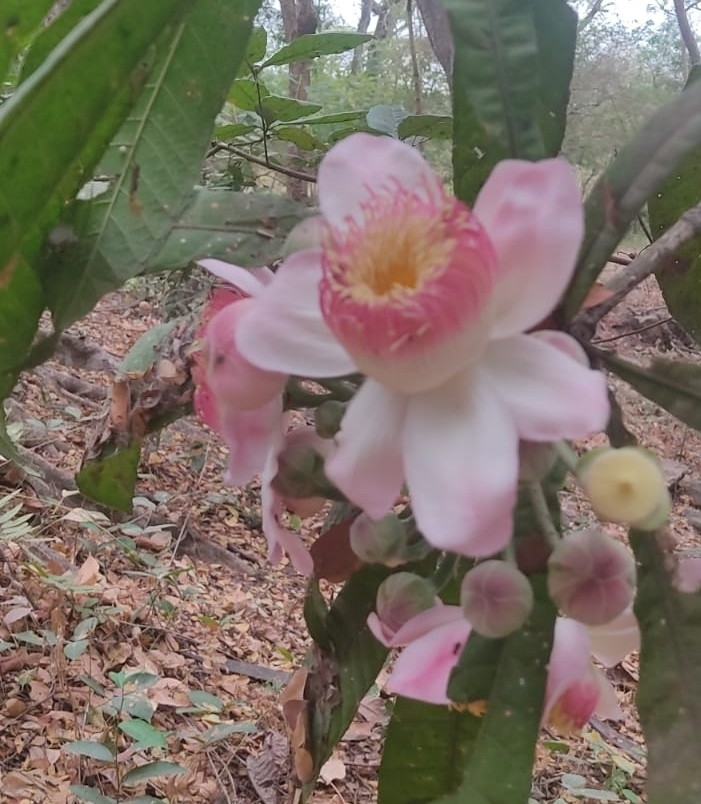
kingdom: Plantae
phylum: Tracheophyta
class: Magnoliopsida
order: Ericales
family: Lecythidaceae
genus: Gustavia
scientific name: Gustavia angustifolia
